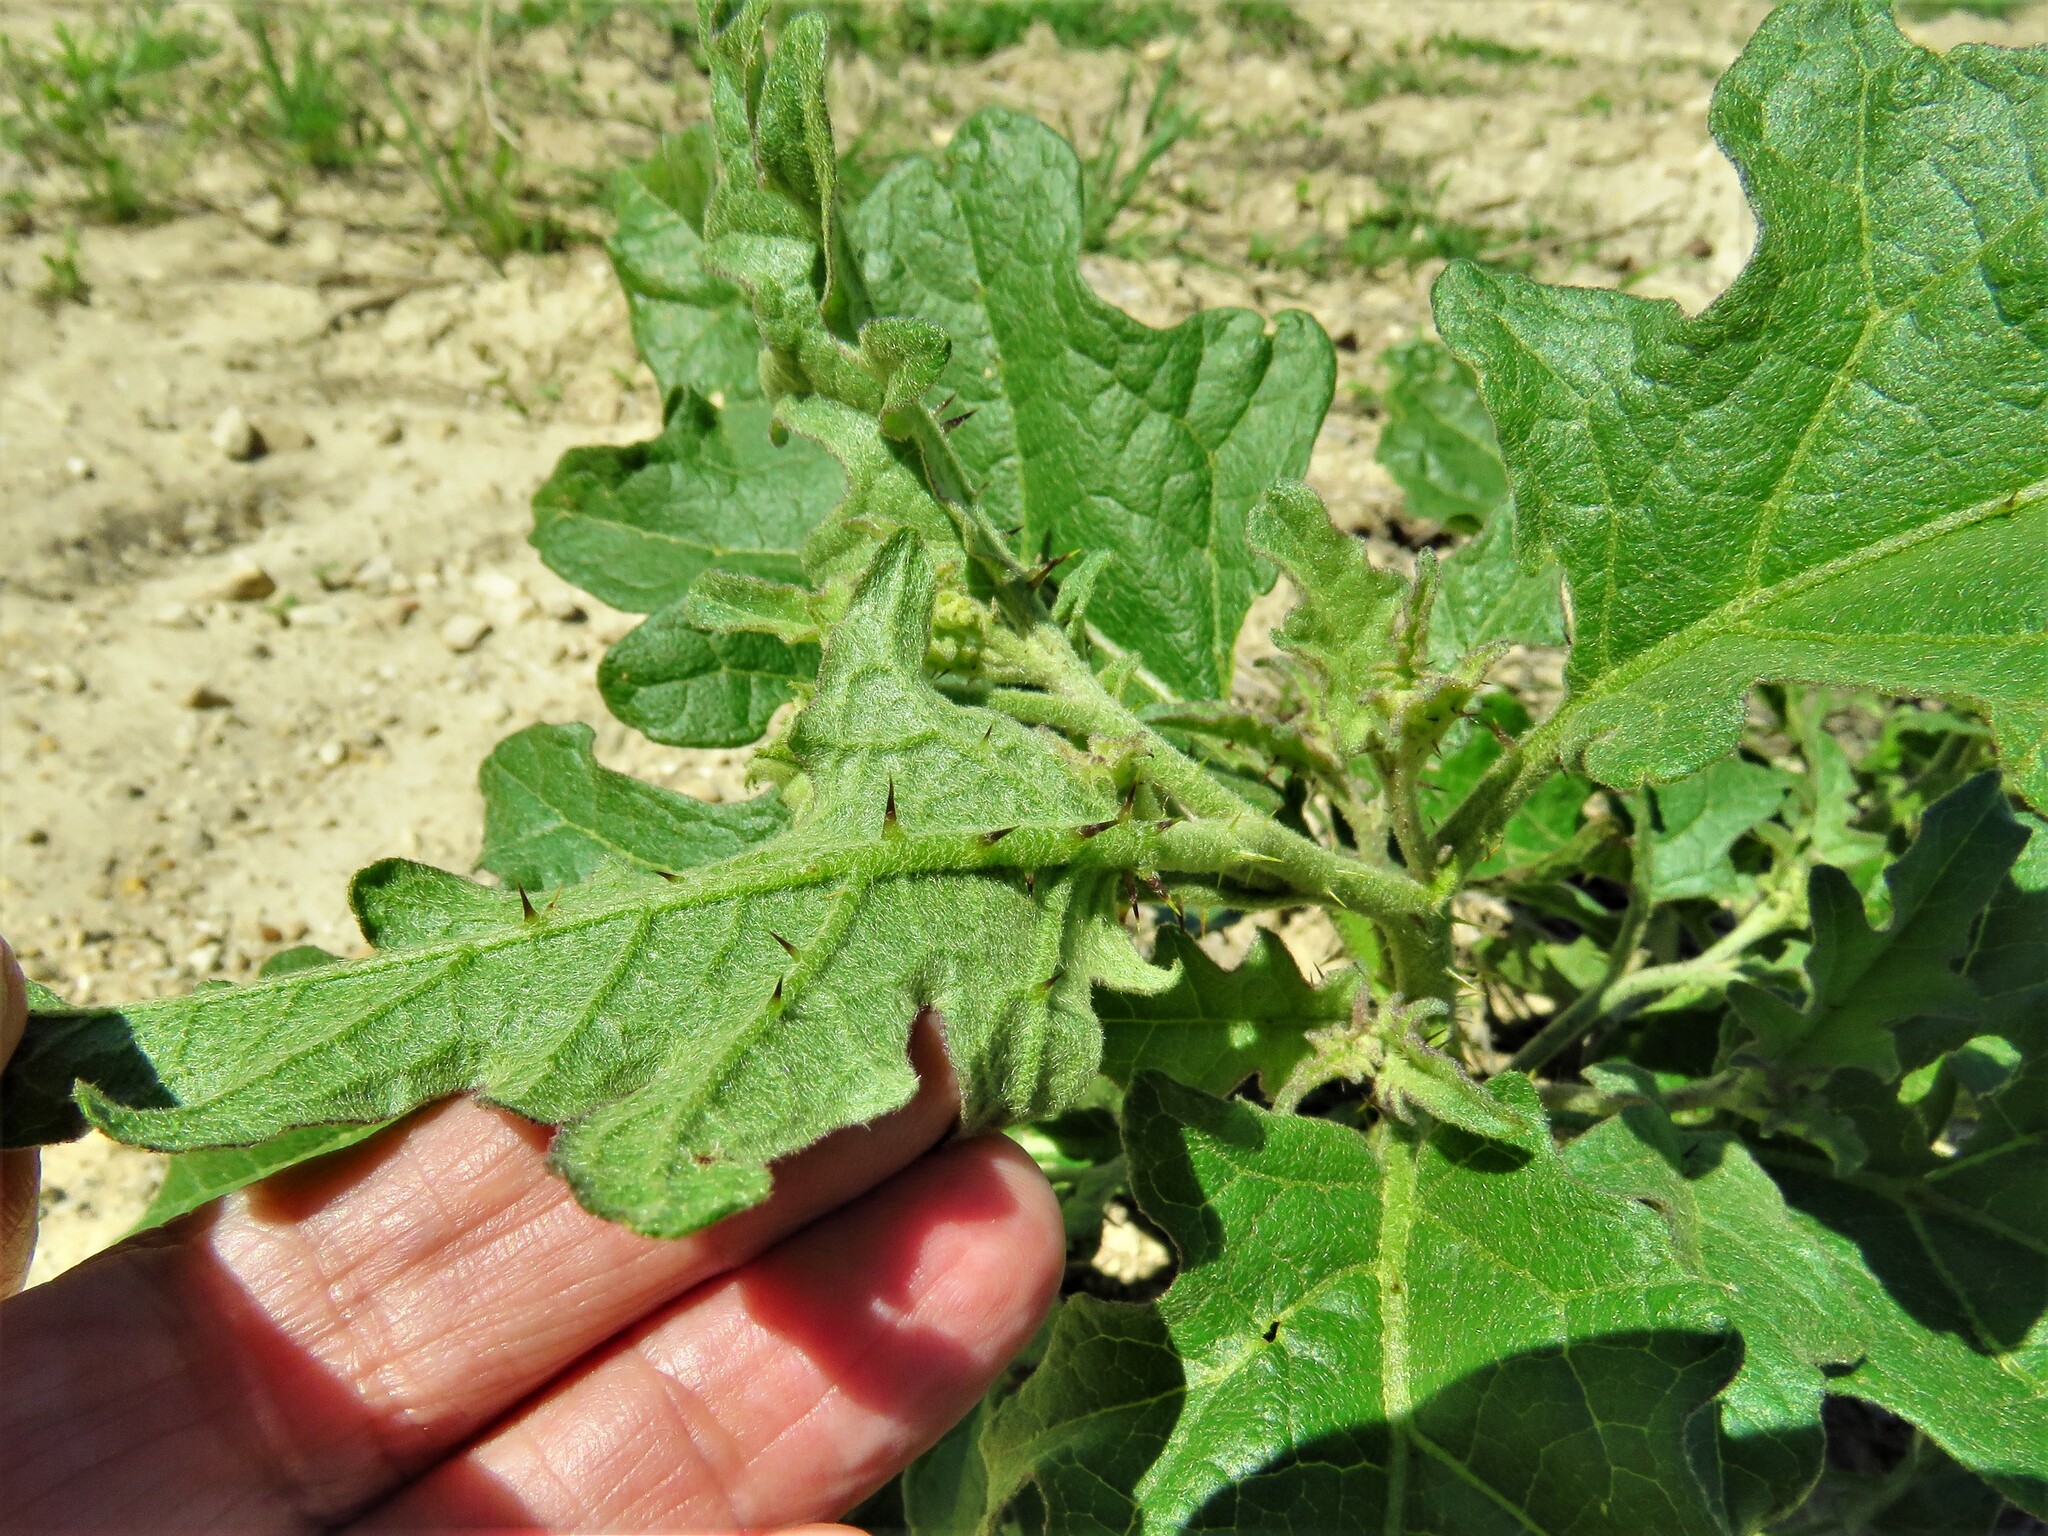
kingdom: Plantae
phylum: Tracheophyta
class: Magnoliopsida
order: Solanales
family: Solanaceae
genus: Solanum
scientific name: Solanum dimidiatum
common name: Carolina horse-nettle
